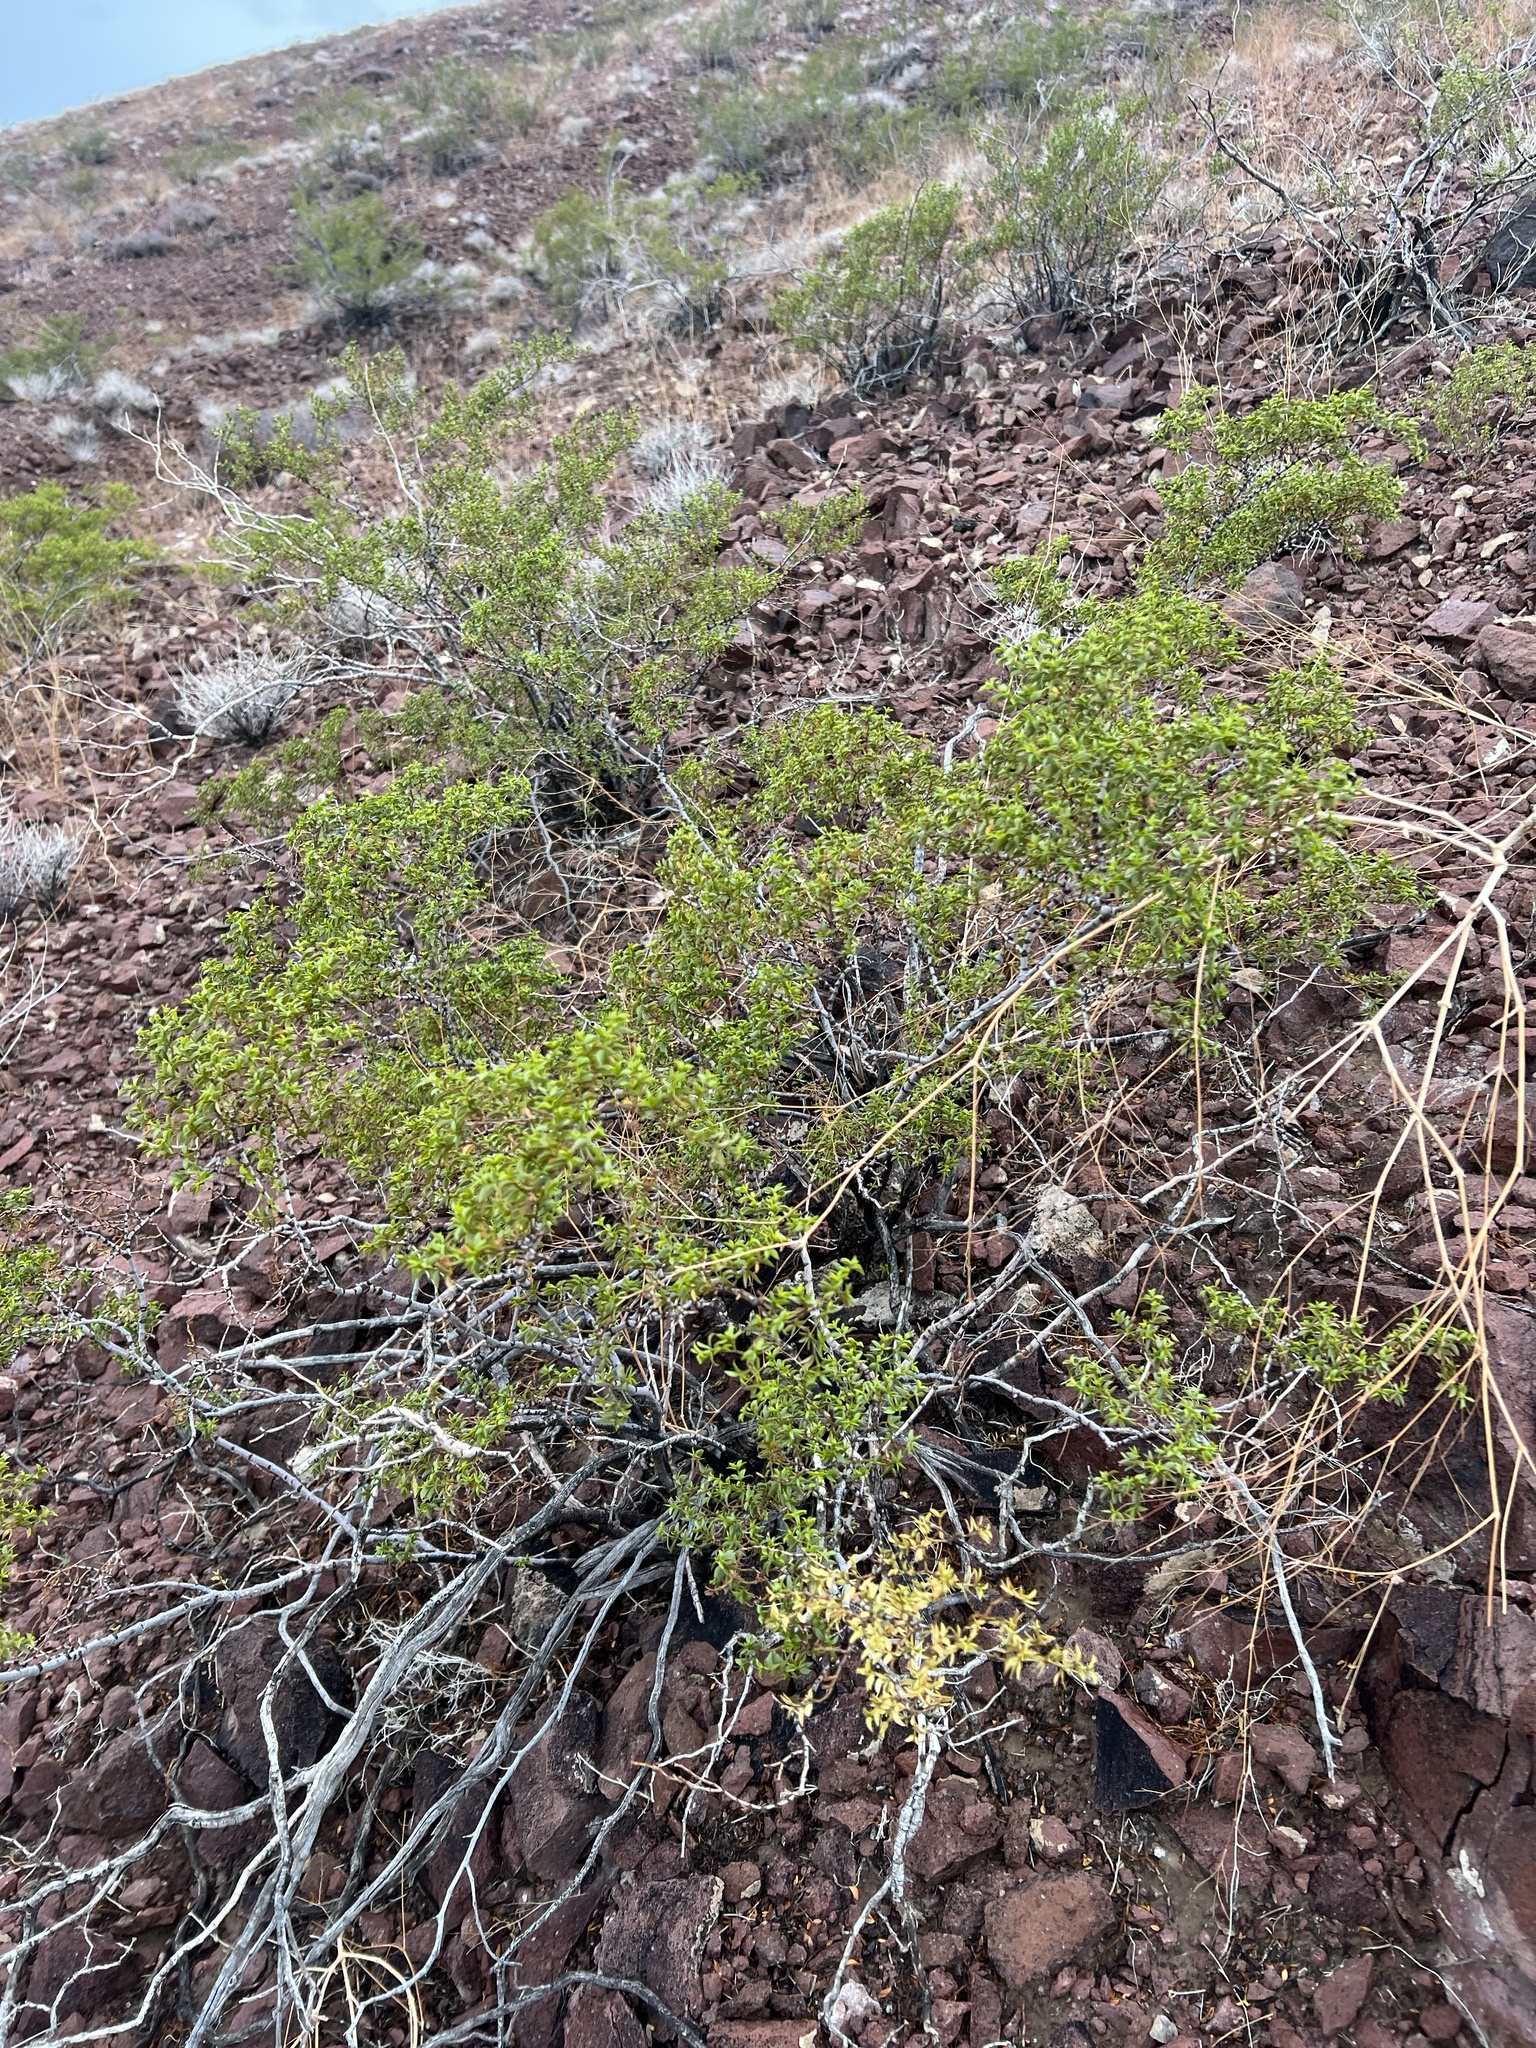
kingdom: Plantae
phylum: Tracheophyta
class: Magnoliopsida
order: Zygophyllales
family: Zygophyllaceae
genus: Larrea
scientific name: Larrea tridentata
